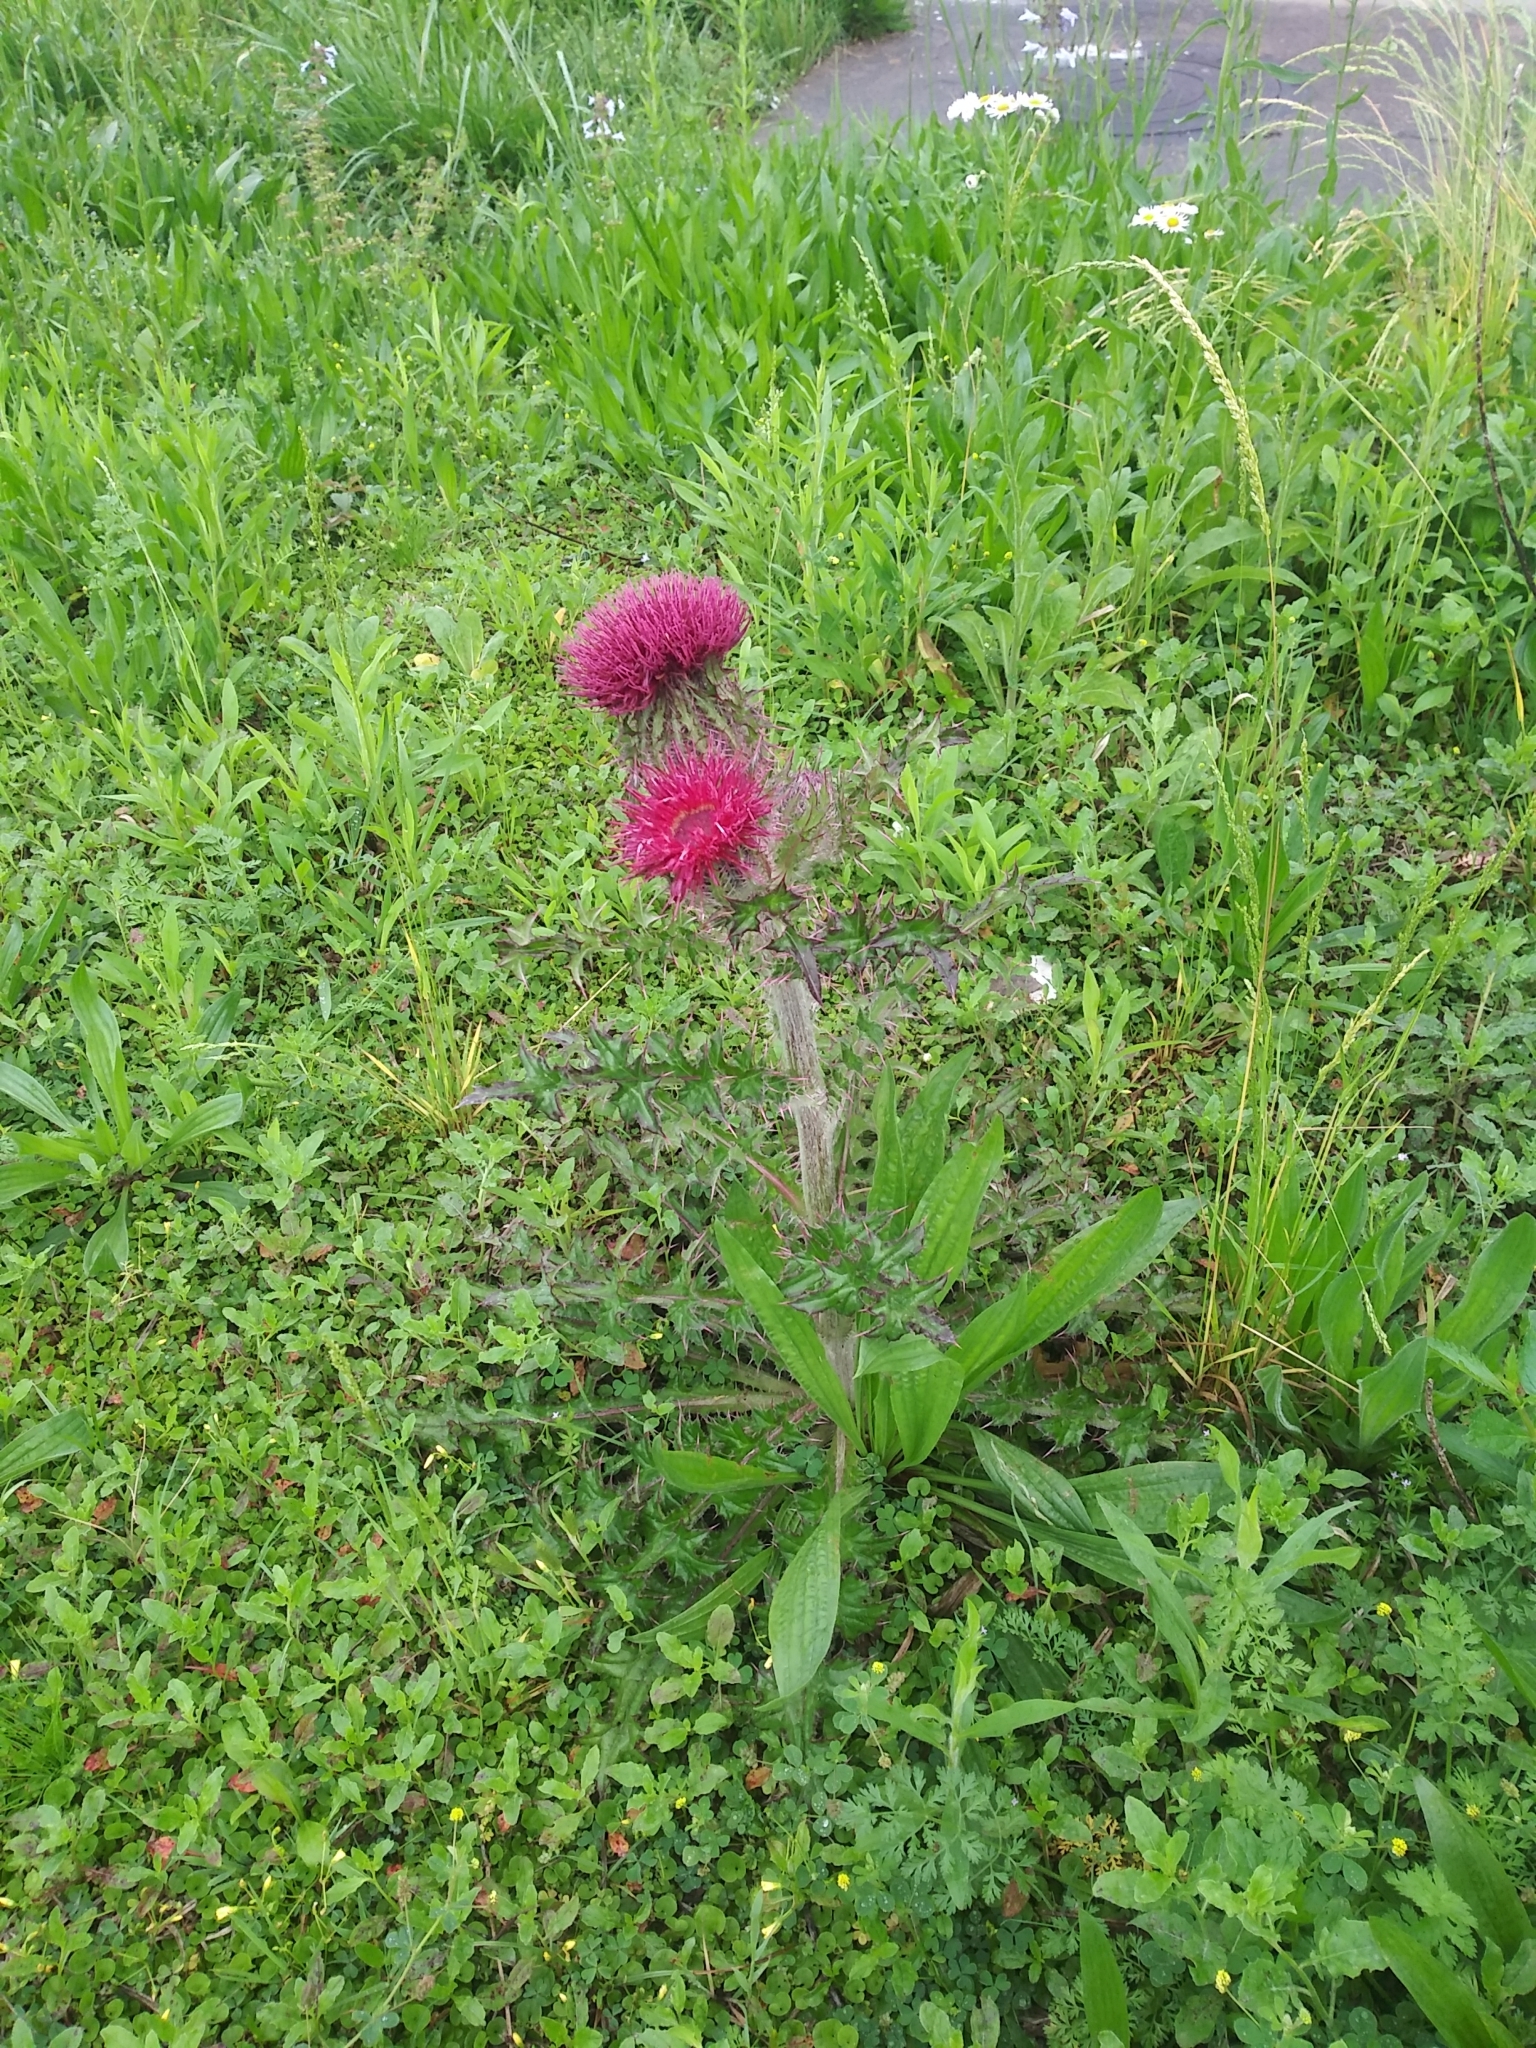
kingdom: Plantae
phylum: Tracheophyta
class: Magnoliopsida
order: Asterales
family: Asteraceae
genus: Cirsium
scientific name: Cirsium horridulum
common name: Bristly thistle
